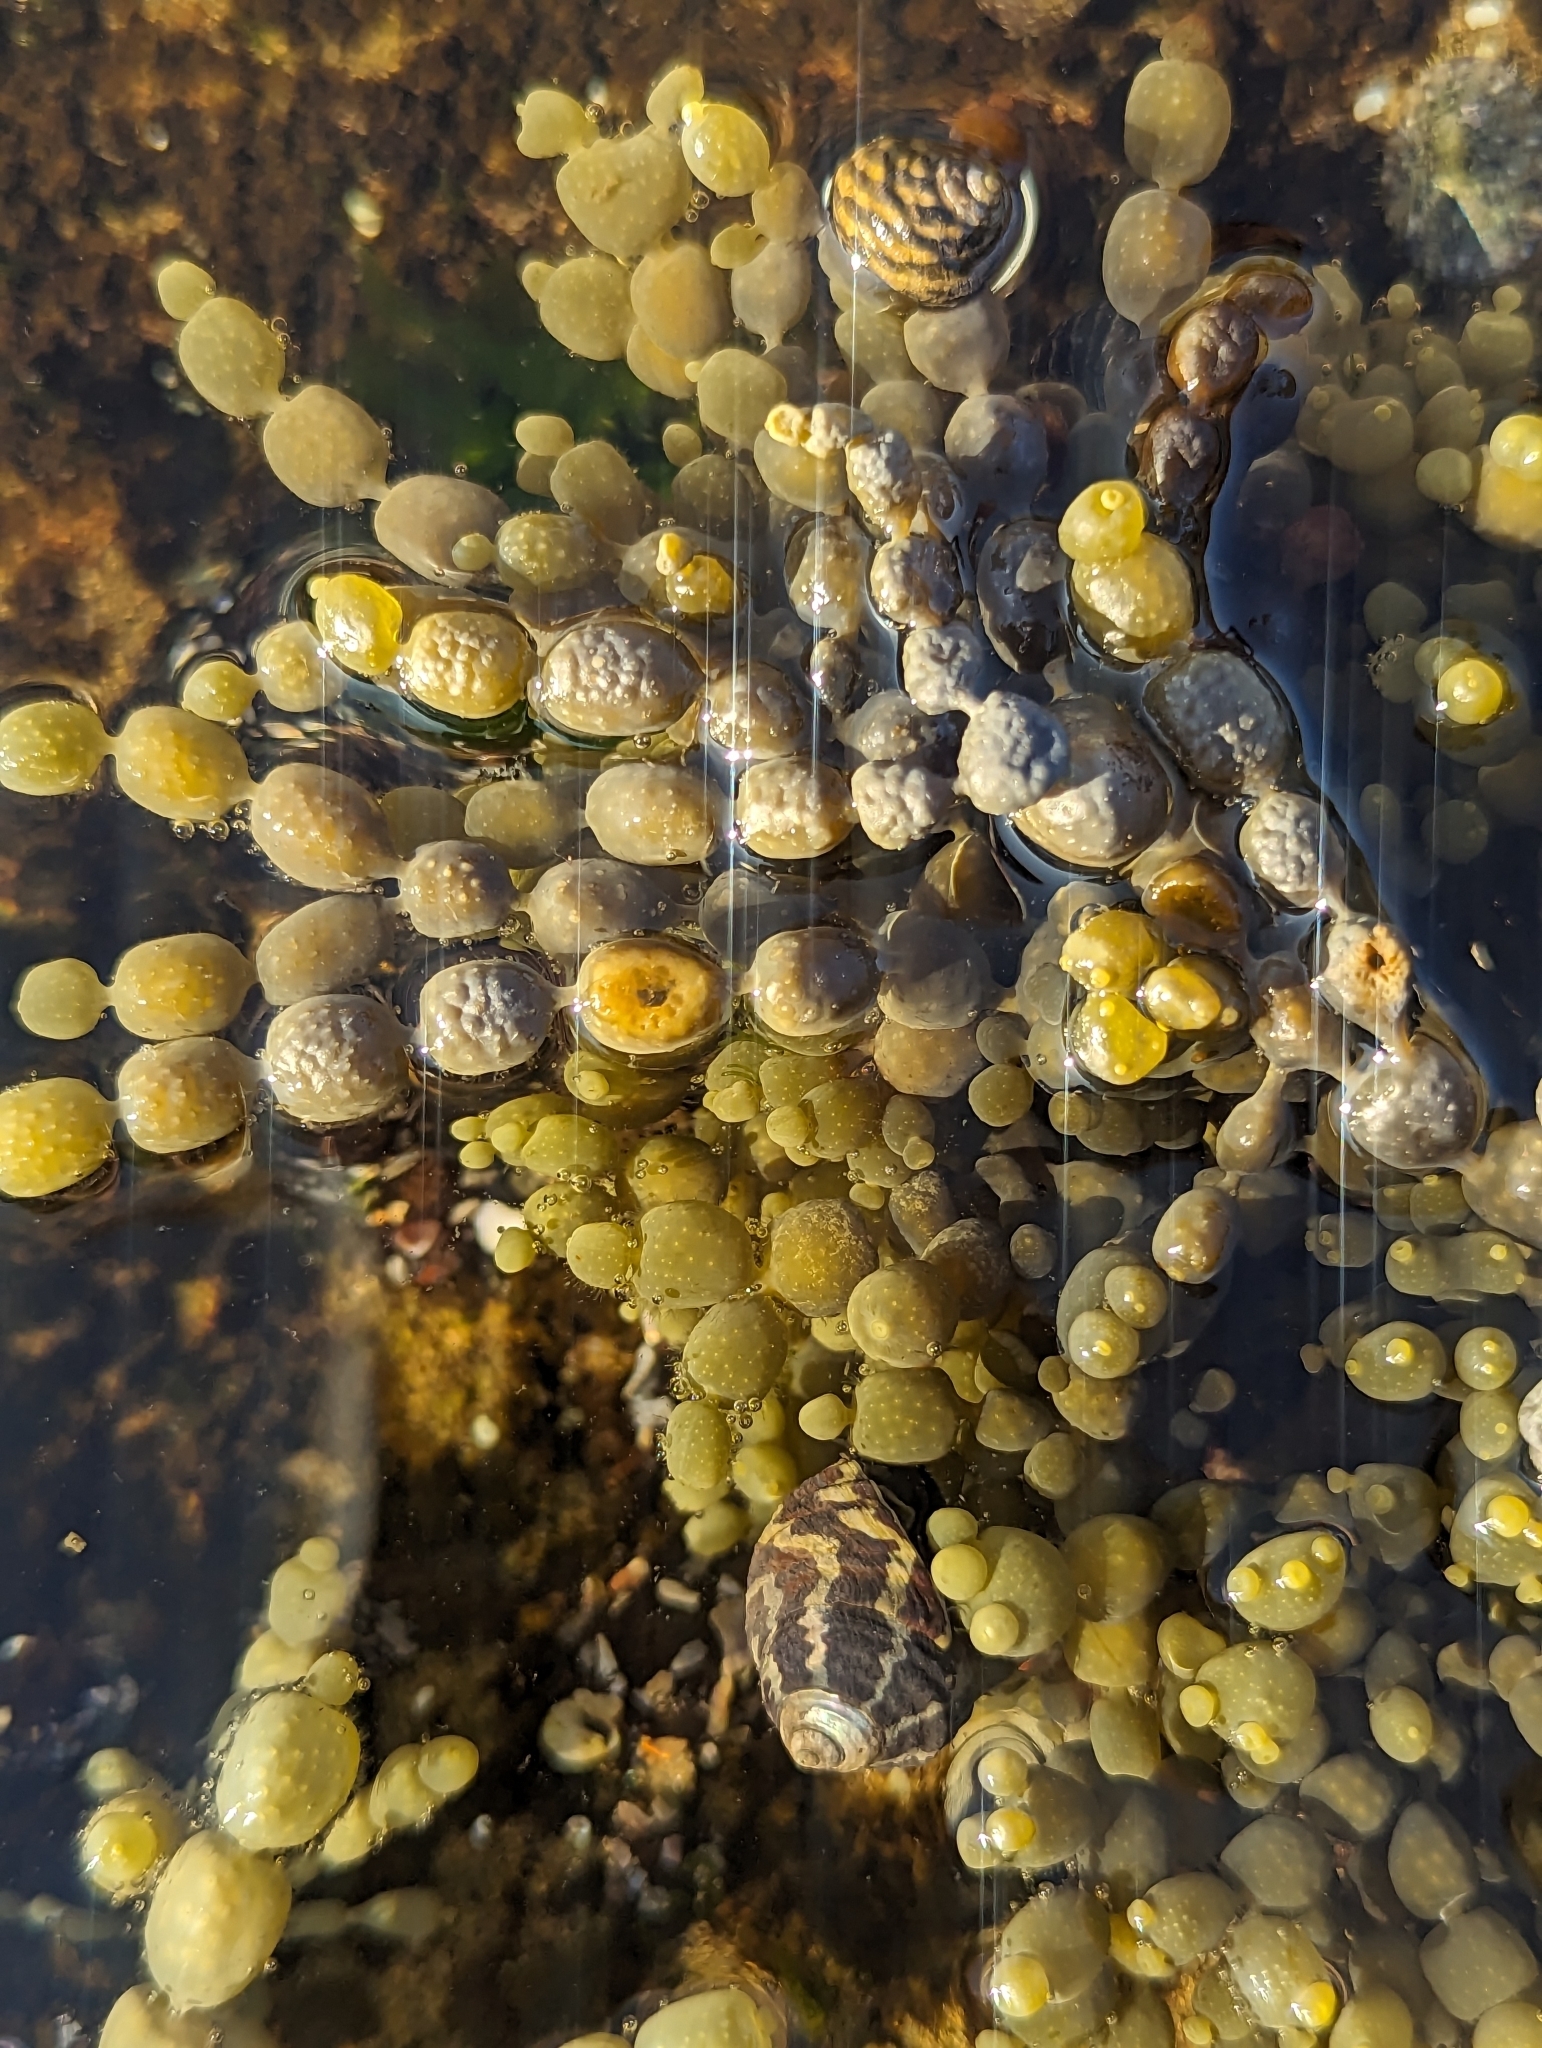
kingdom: Animalia
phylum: Mollusca
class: Gastropoda
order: Trochida
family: Trochidae
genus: Austrocochlea
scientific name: Austrocochlea porcata
